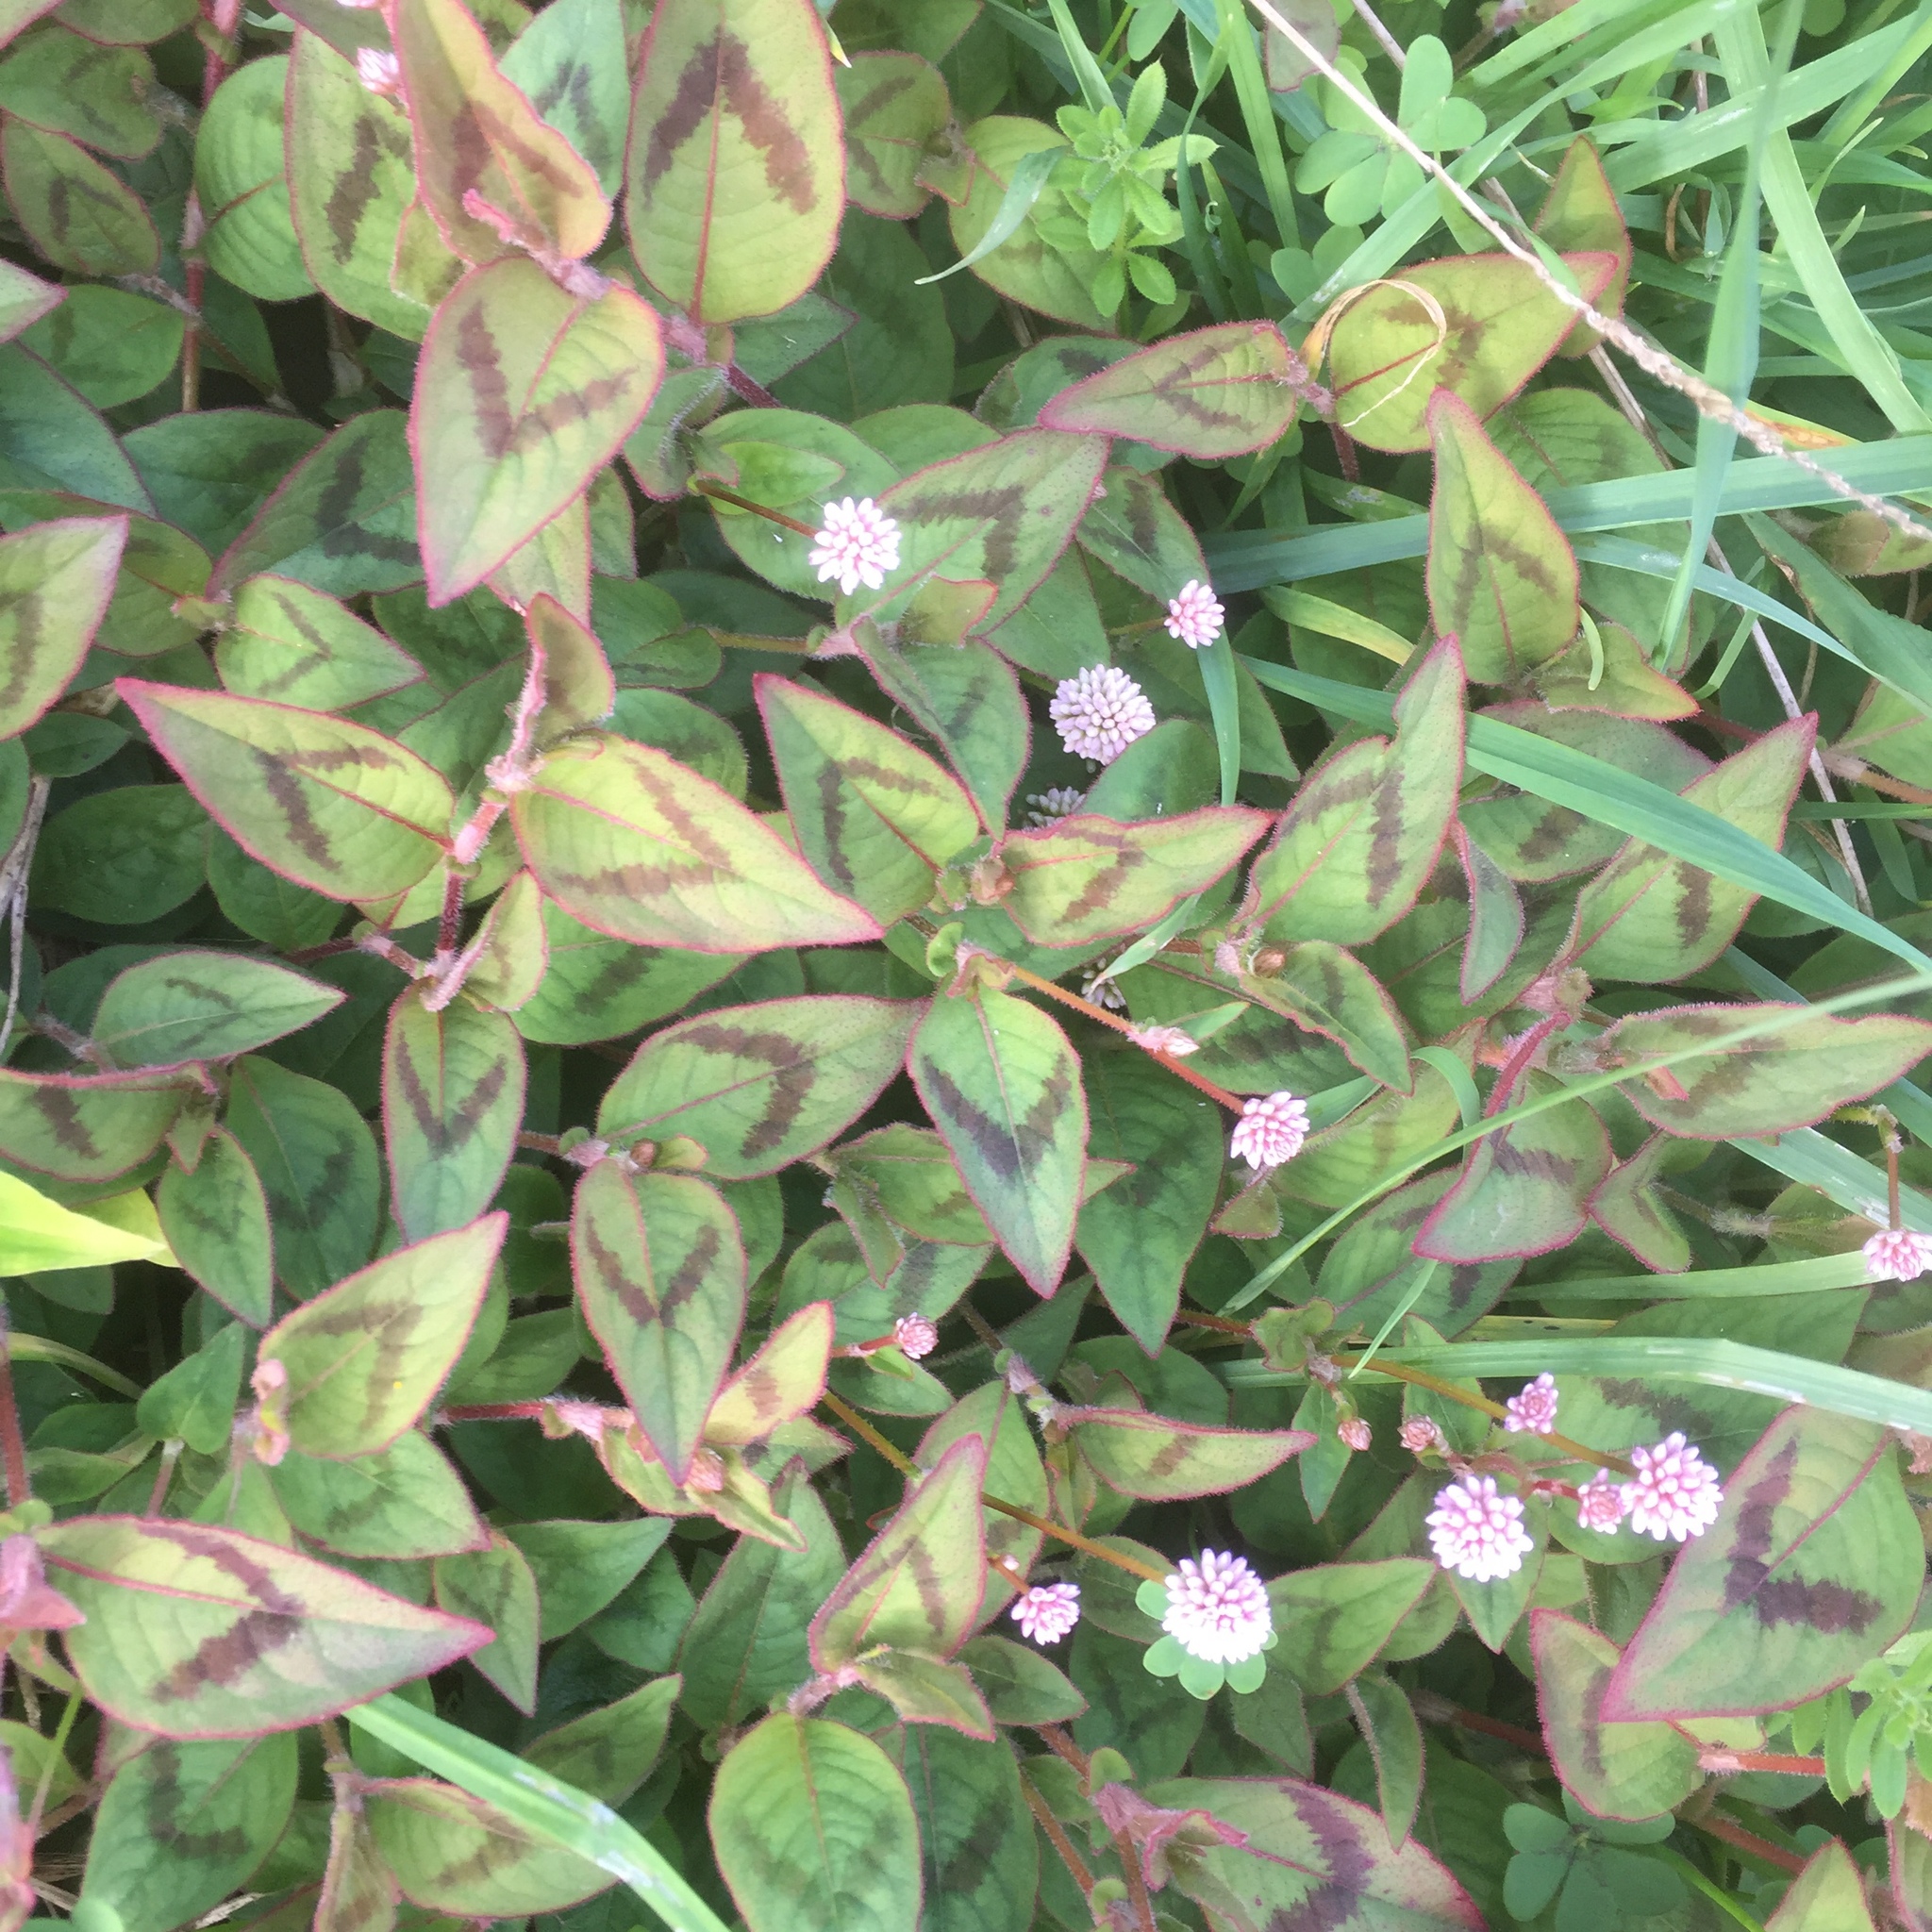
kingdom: Plantae
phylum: Tracheophyta
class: Magnoliopsida
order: Caryophyllales
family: Polygonaceae
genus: Persicaria
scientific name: Persicaria capitata
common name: Pinkhead smartweed
